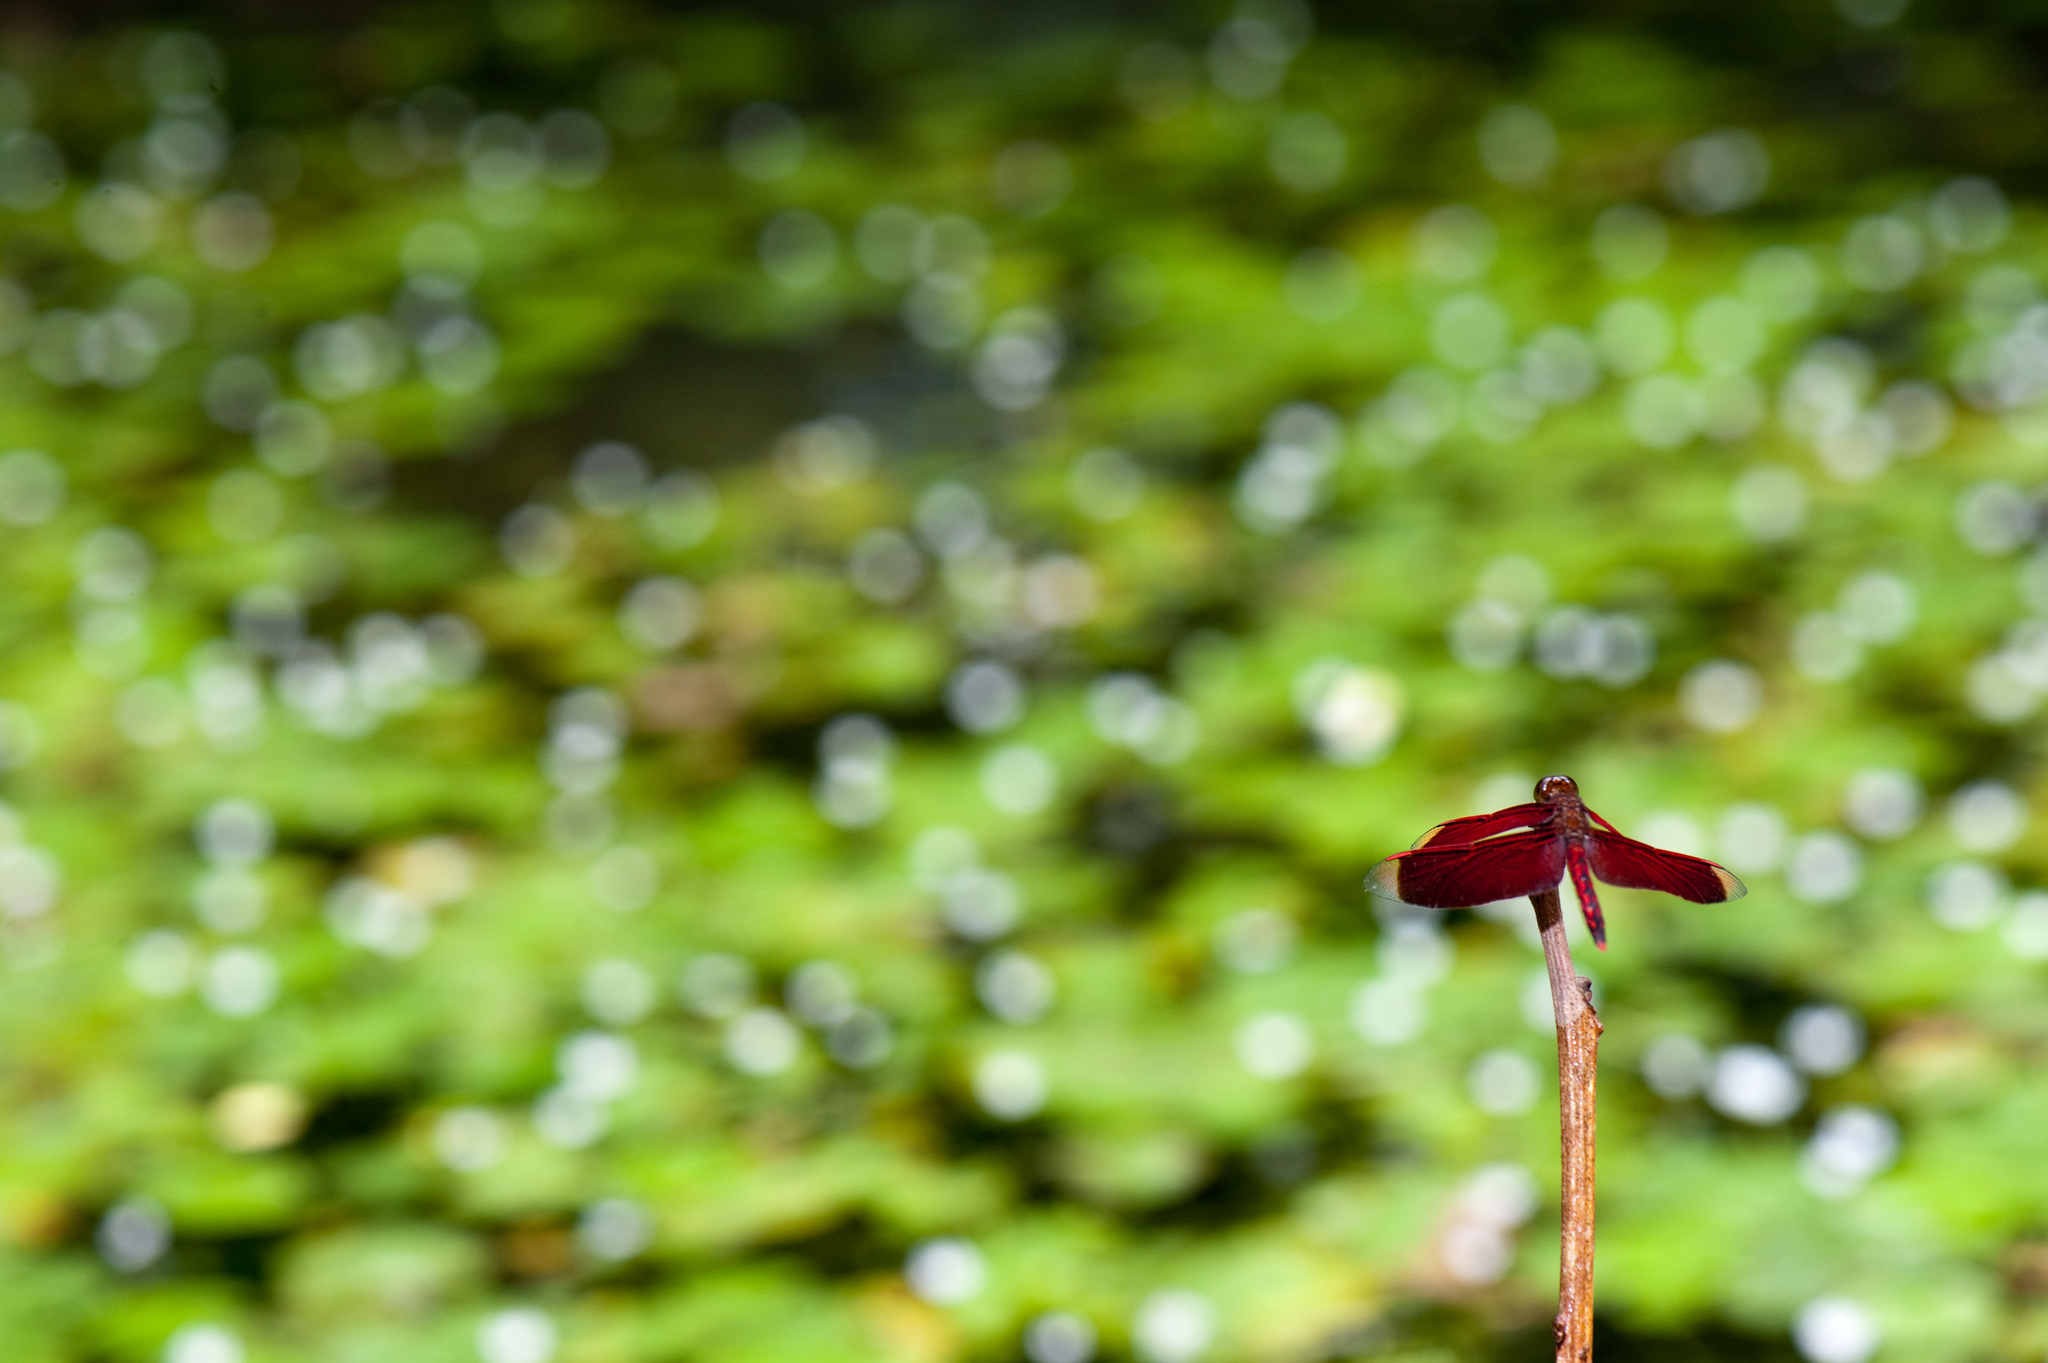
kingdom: Animalia
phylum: Arthropoda
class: Insecta
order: Odonata
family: Libellulidae
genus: Neurothemis
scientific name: Neurothemis taiwanensis
